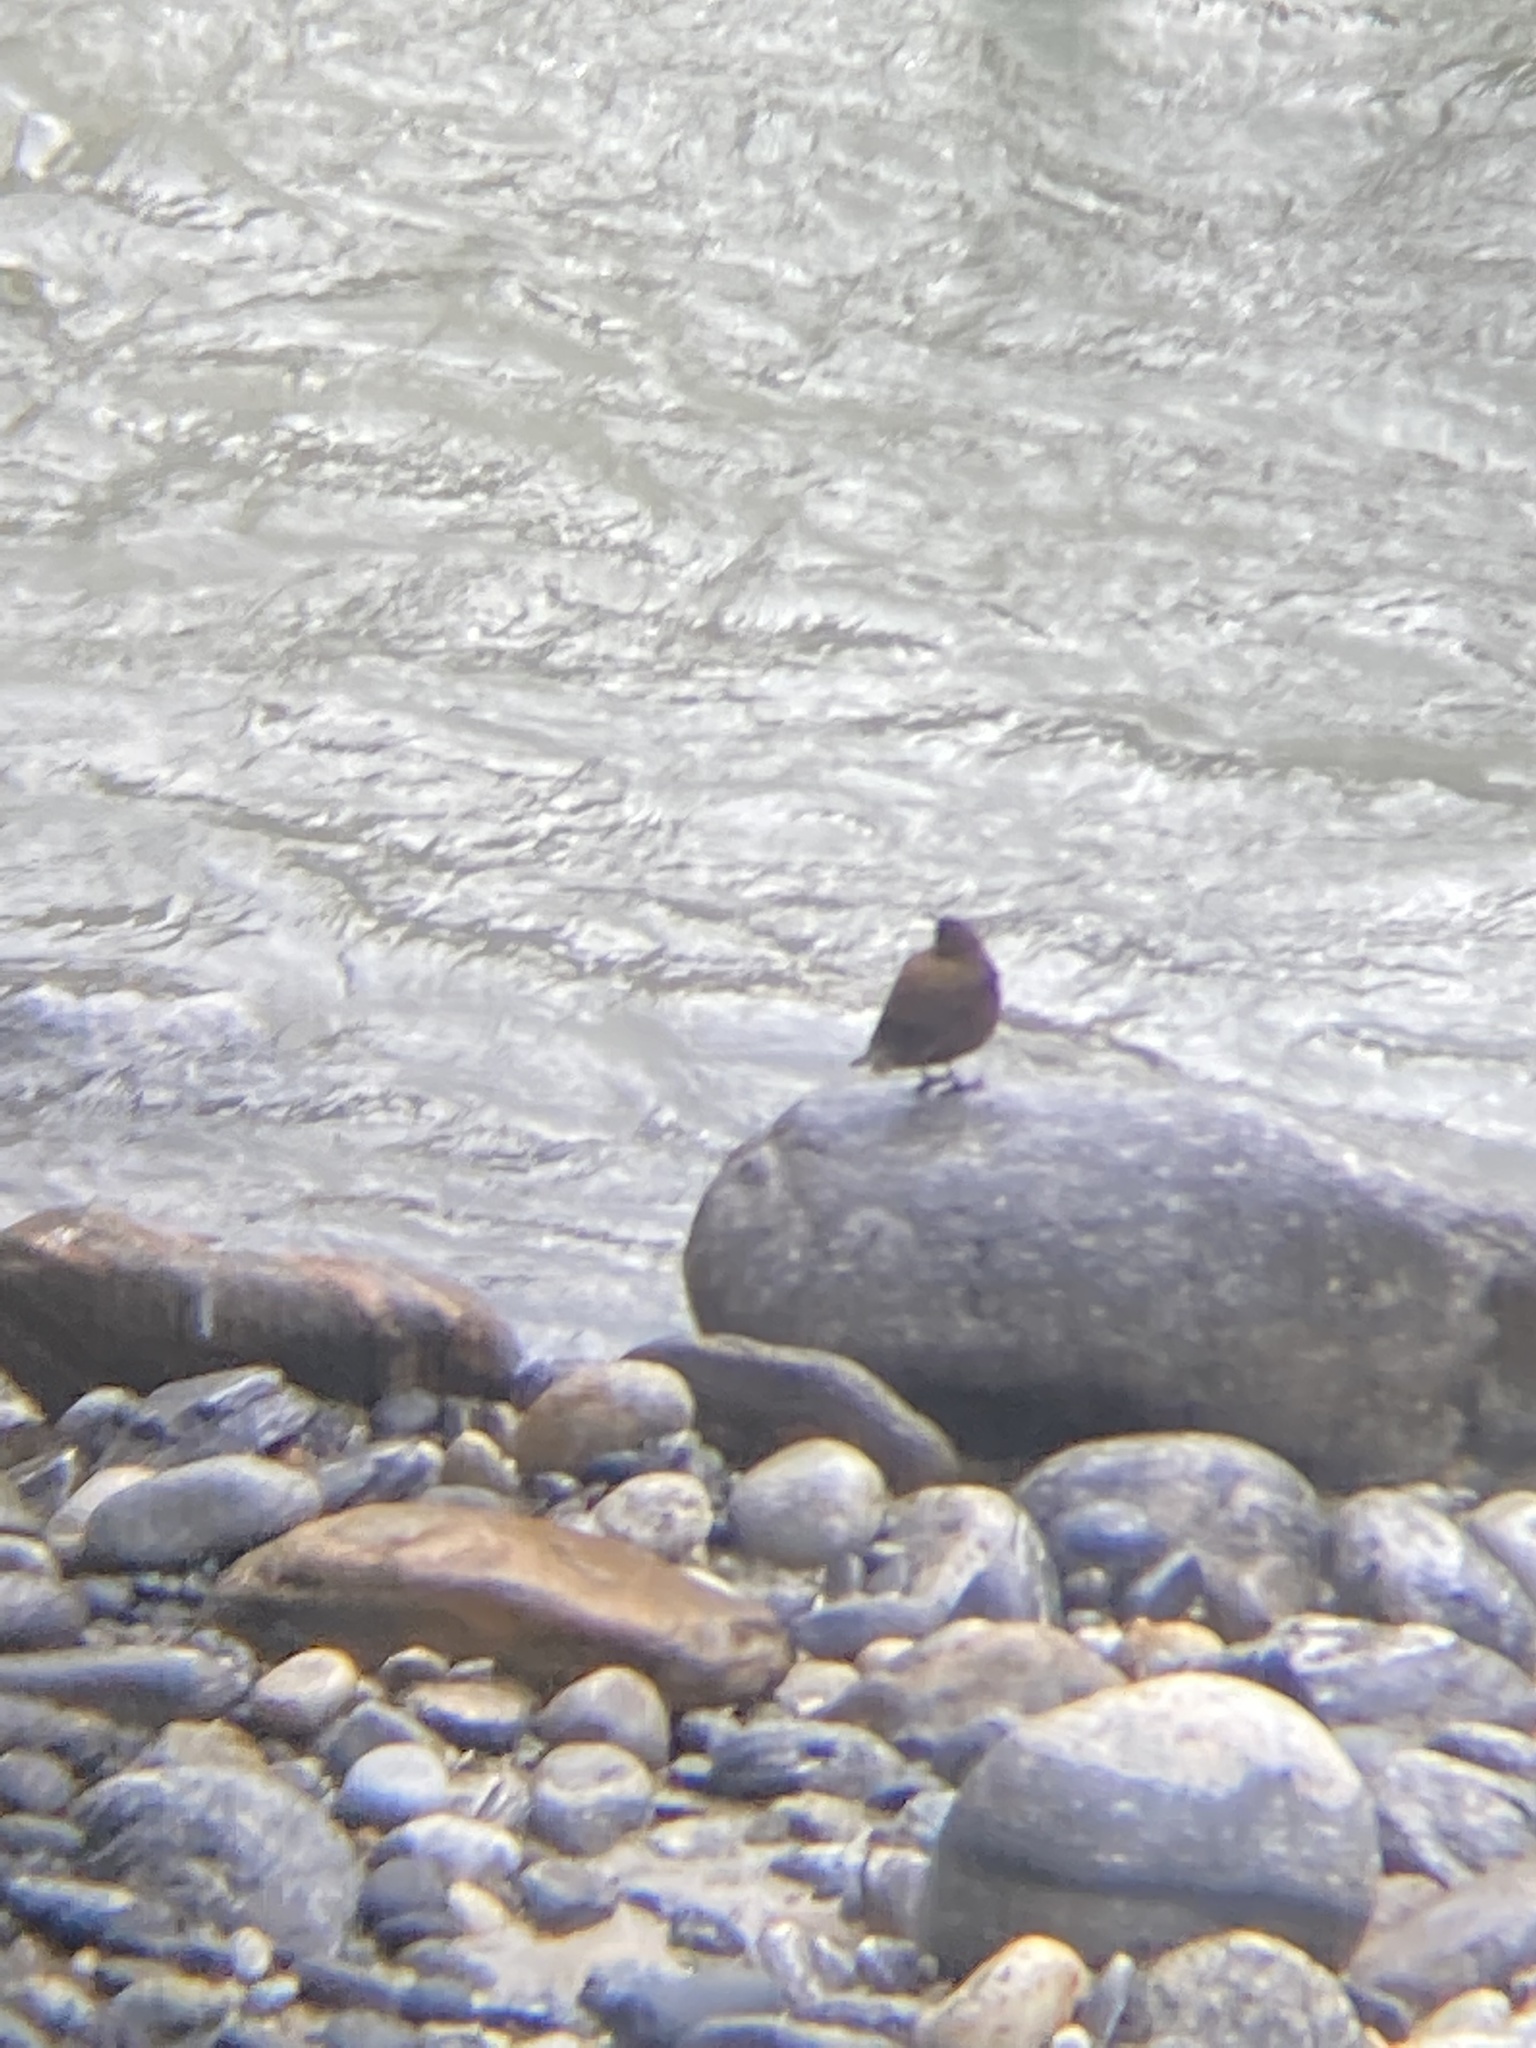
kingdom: Animalia
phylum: Chordata
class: Aves
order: Passeriformes
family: Cinclidae
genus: Cinclus
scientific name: Cinclus pallasii
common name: Brown dipper
